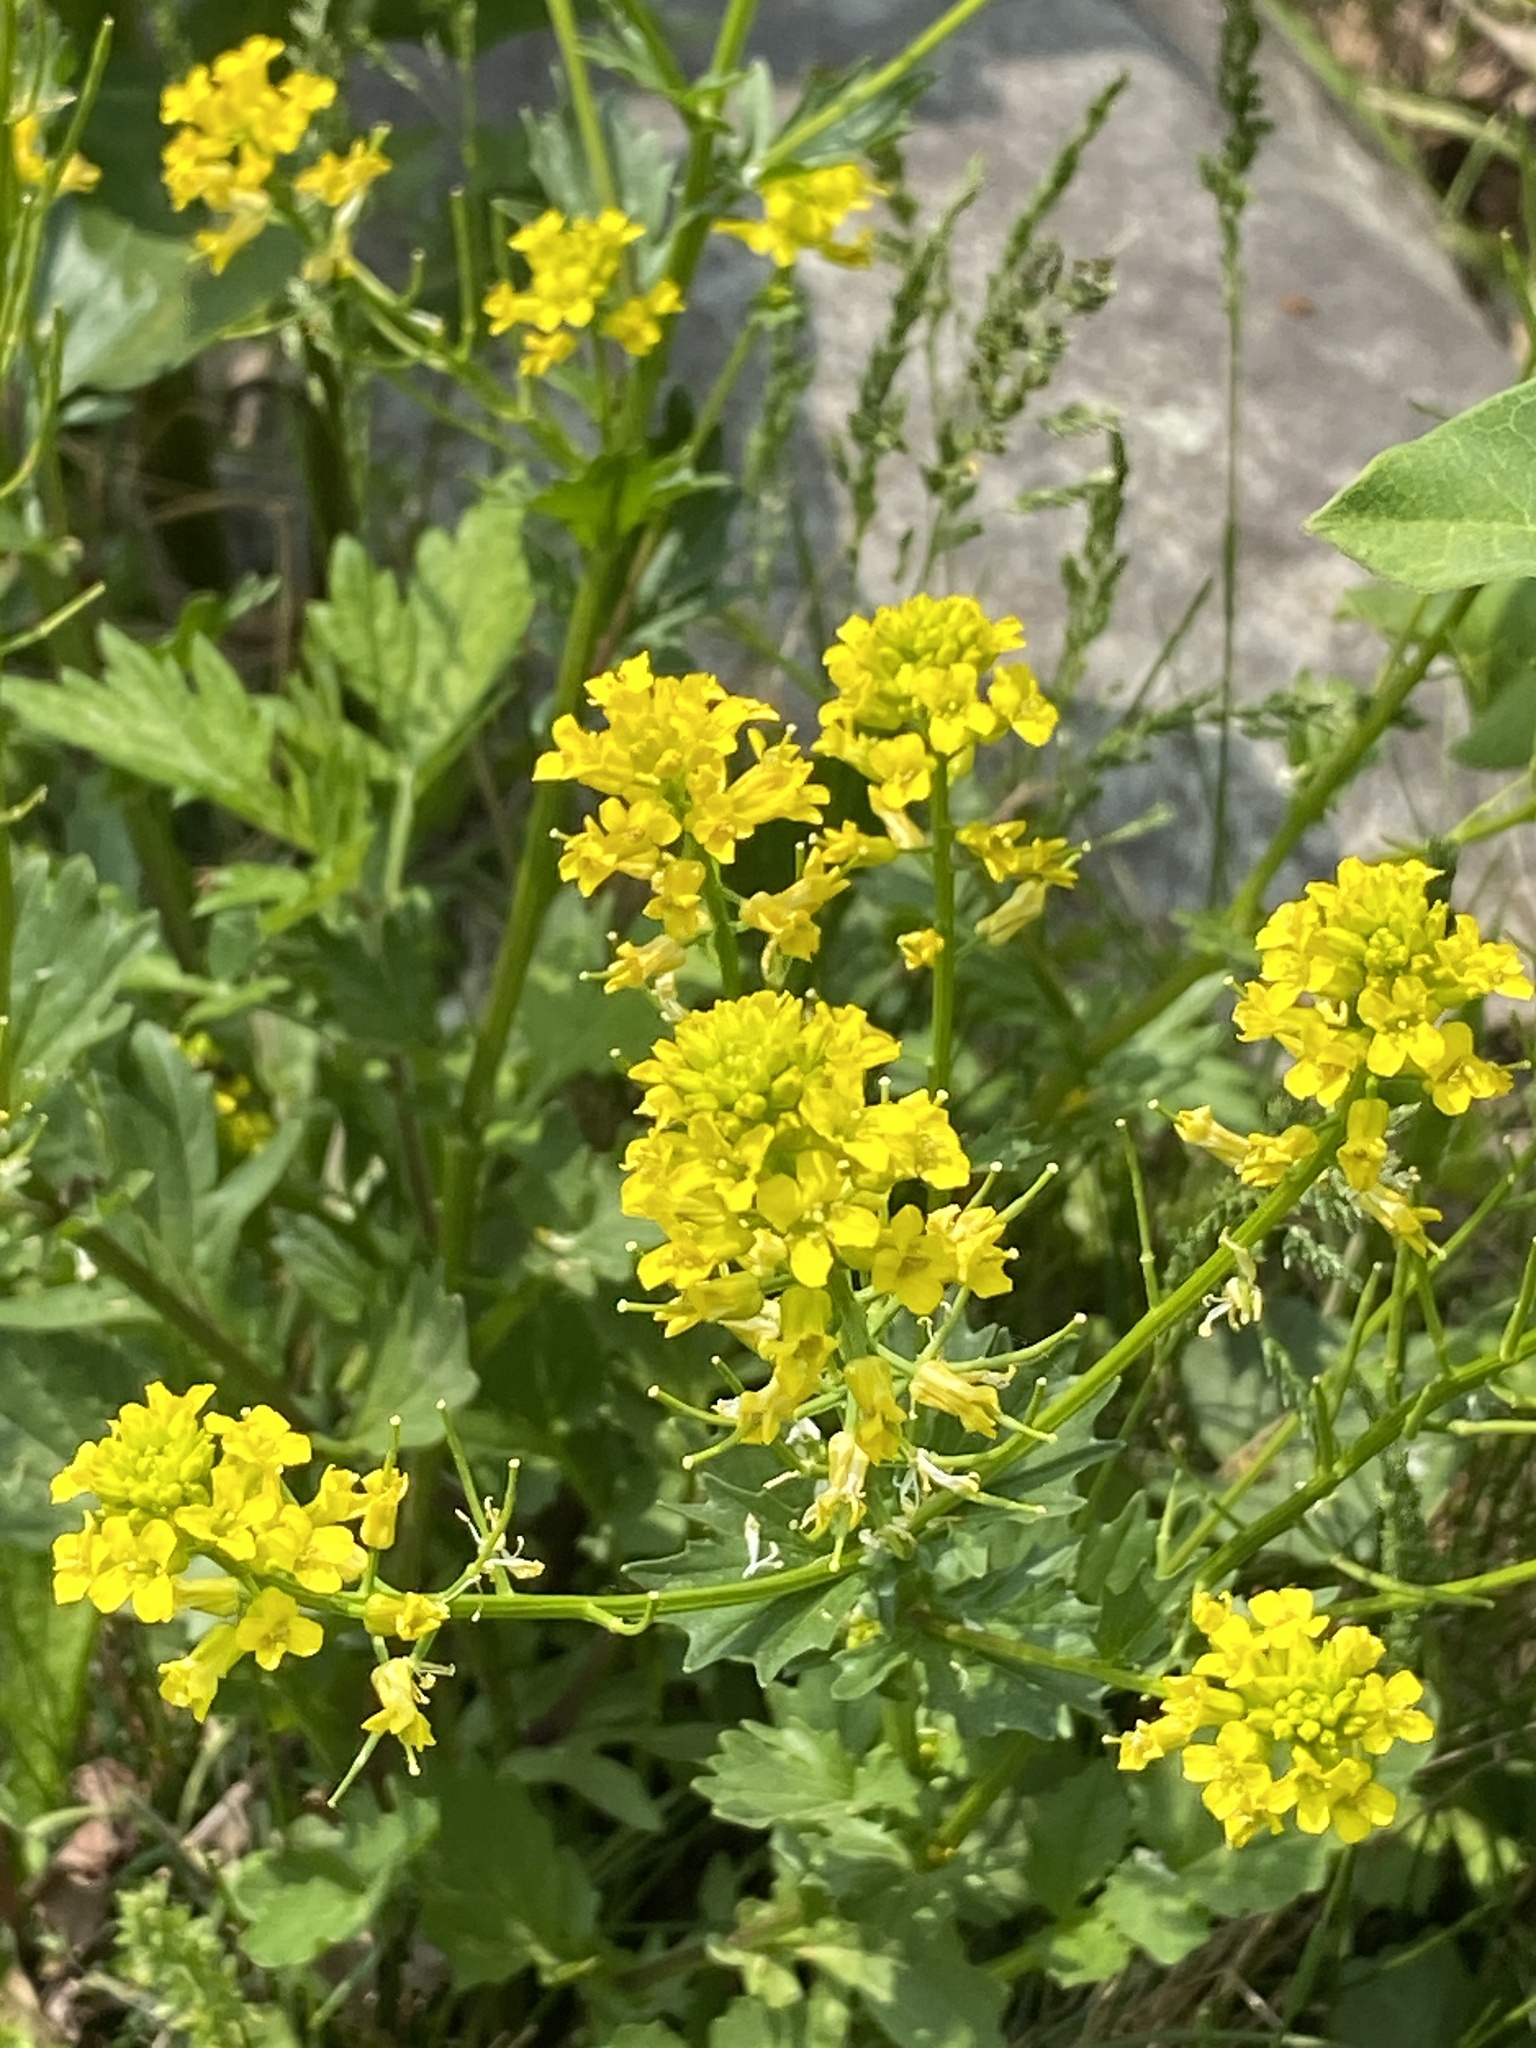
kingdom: Plantae
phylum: Tracheophyta
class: Magnoliopsida
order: Brassicales
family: Brassicaceae
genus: Barbarea
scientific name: Barbarea vulgaris
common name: Cressy-greens
